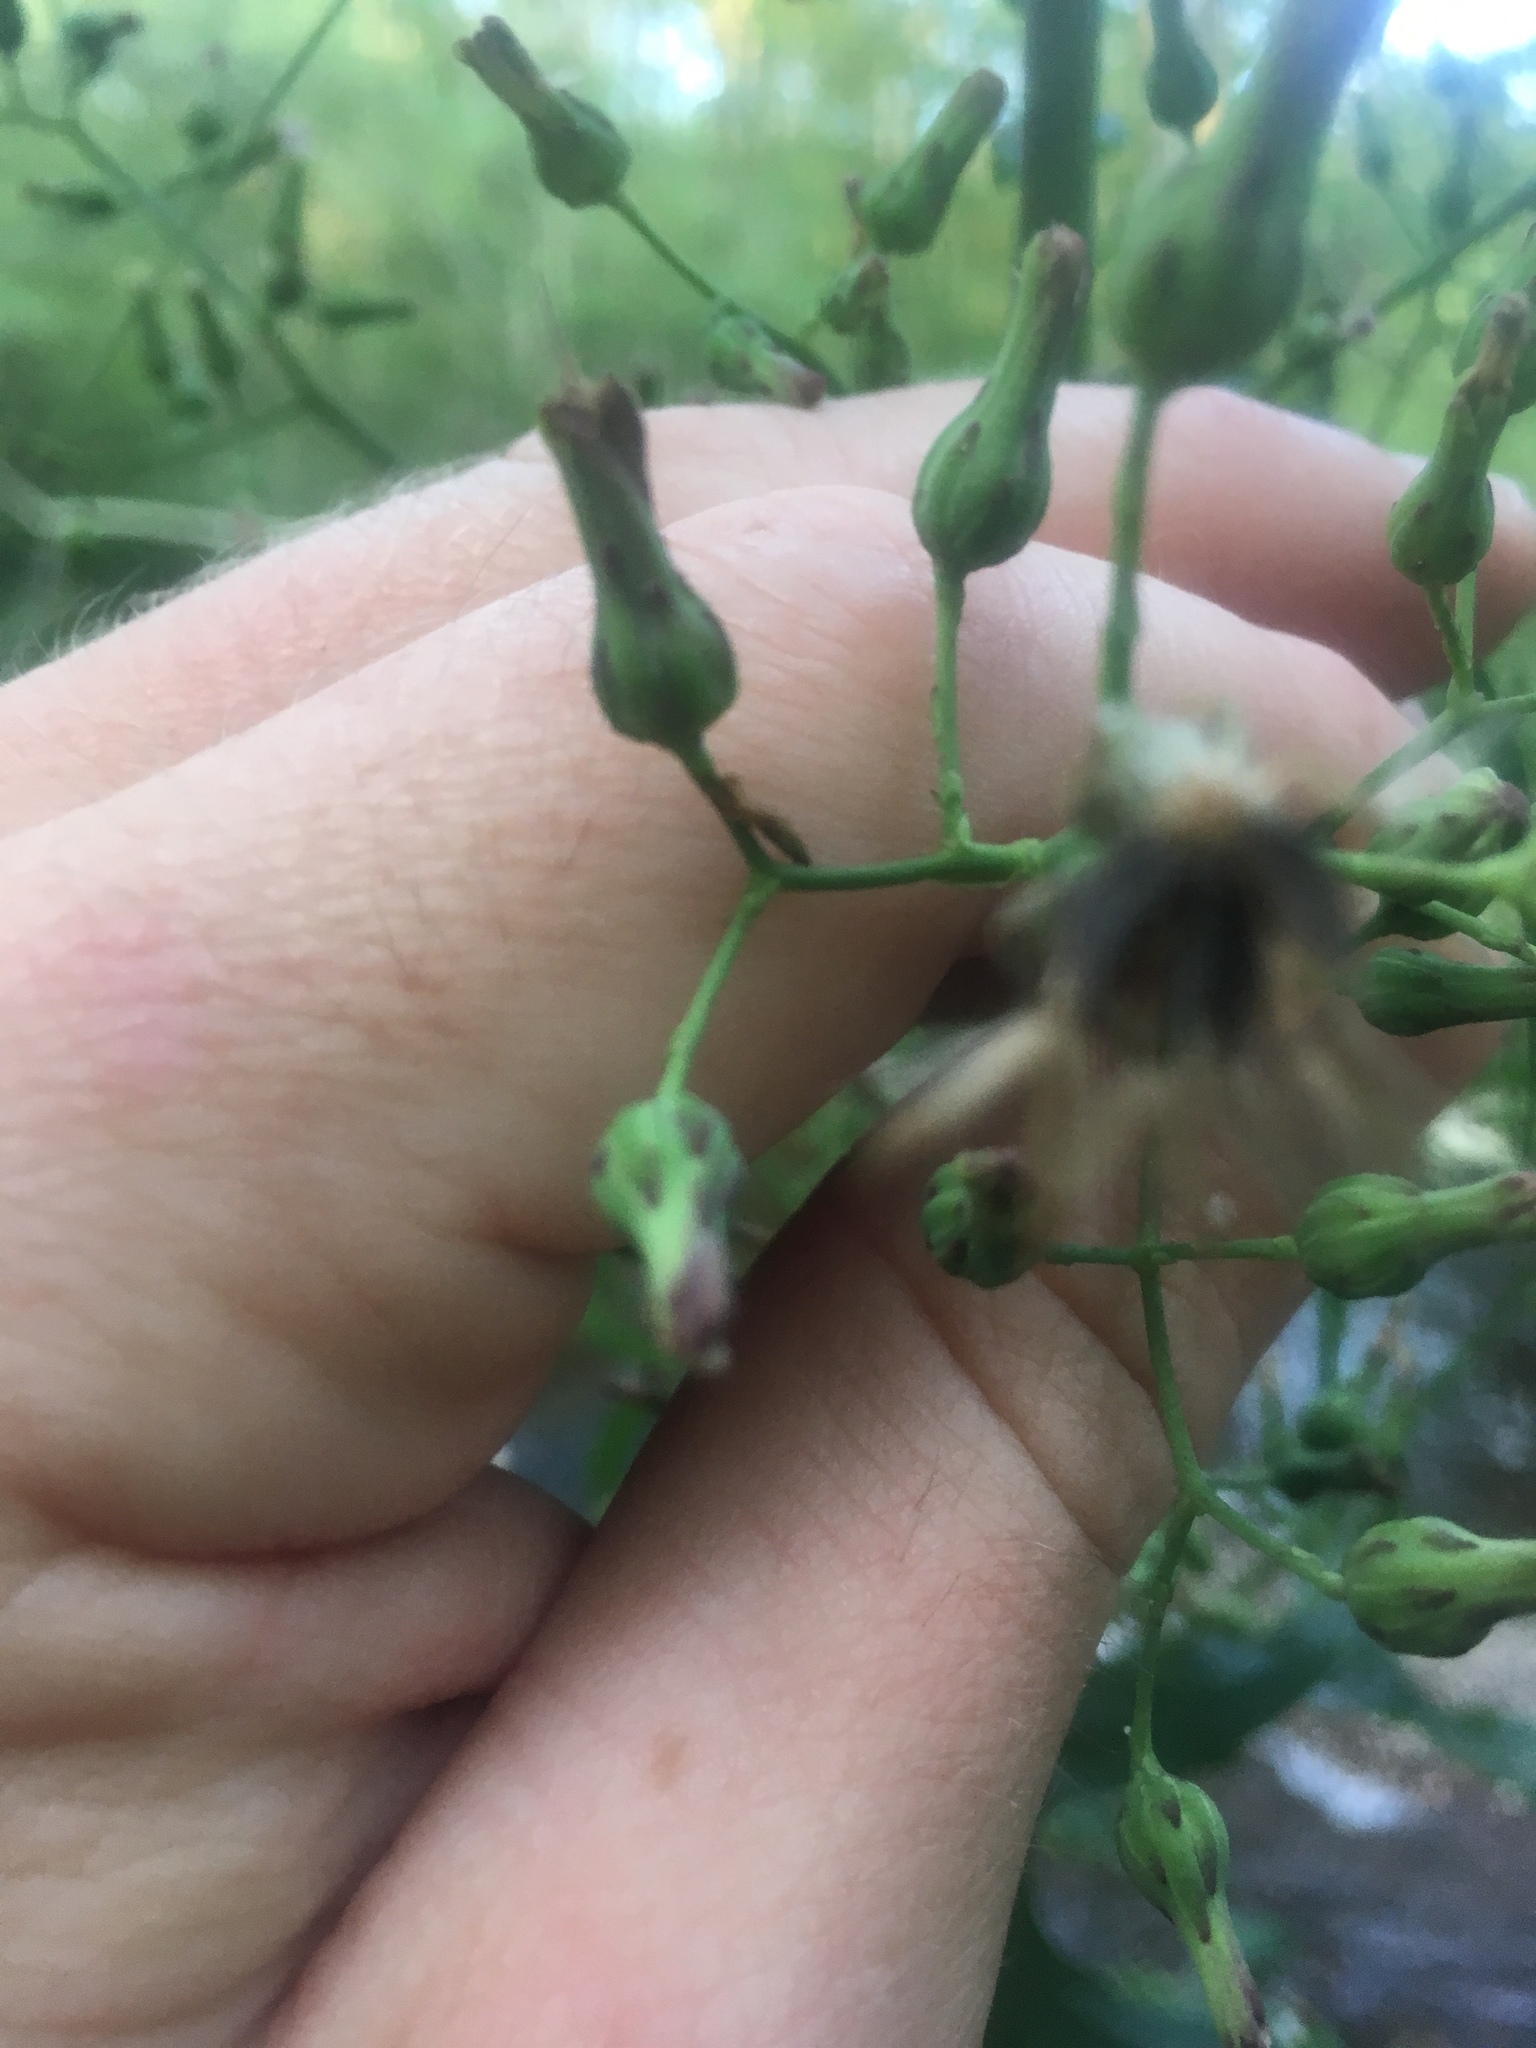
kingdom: Plantae
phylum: Tracheophyta
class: Magnoliopsida
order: Asterales
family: Asteraceae
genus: Lactuca
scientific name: Lactuca biennis
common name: Blue wood lettuce
